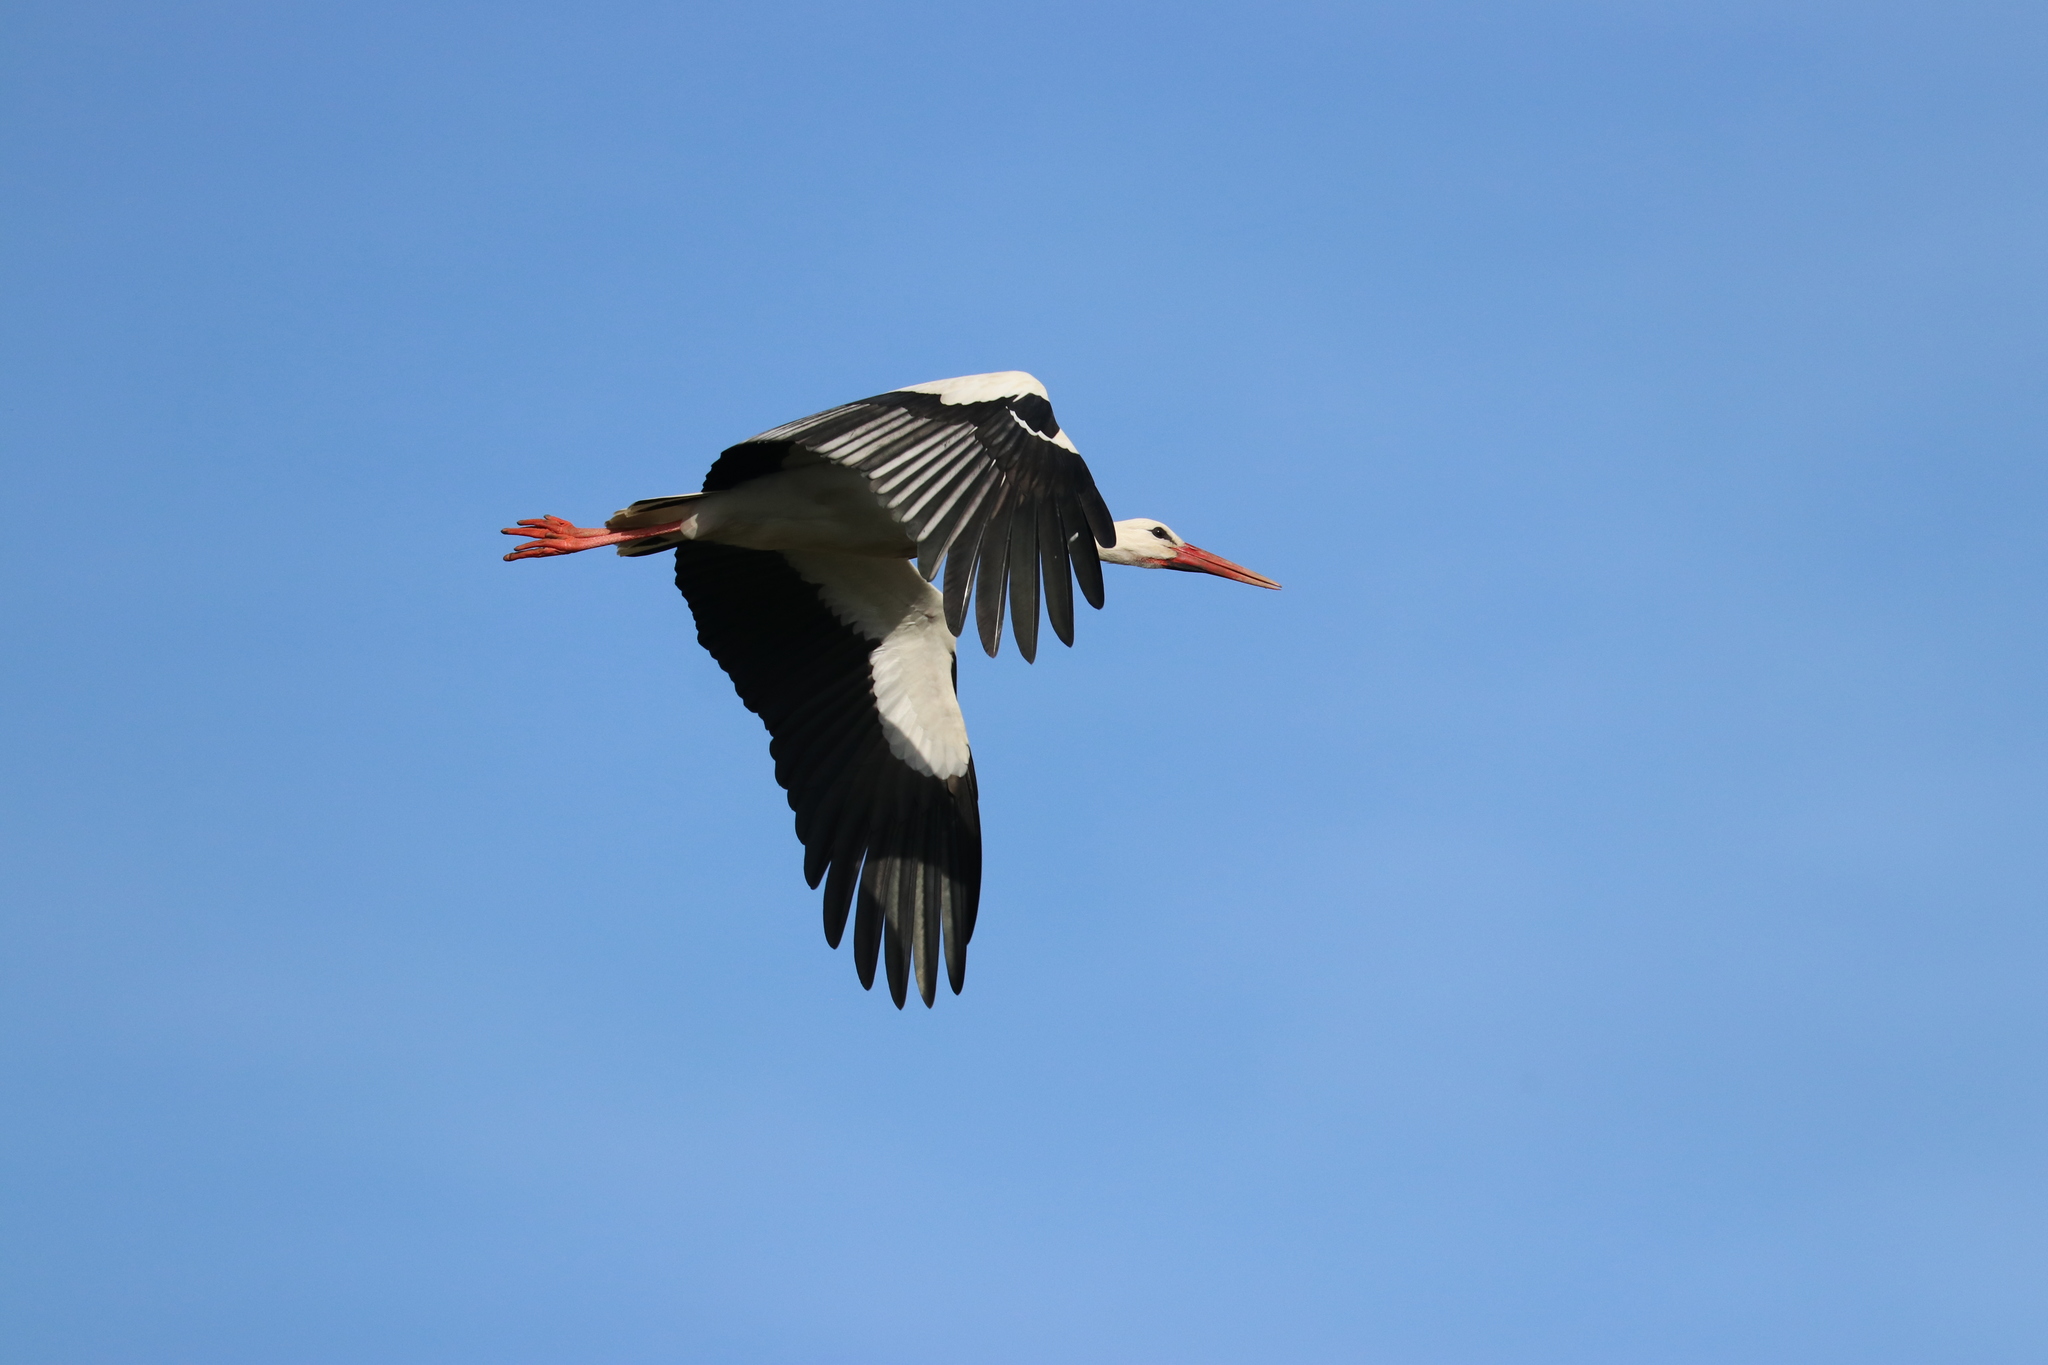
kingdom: Animalia
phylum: Chordata
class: Aves
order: Ciconiiformes
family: Ciconiidae
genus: Ciconia
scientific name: Ciconia ciconia
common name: White stork
